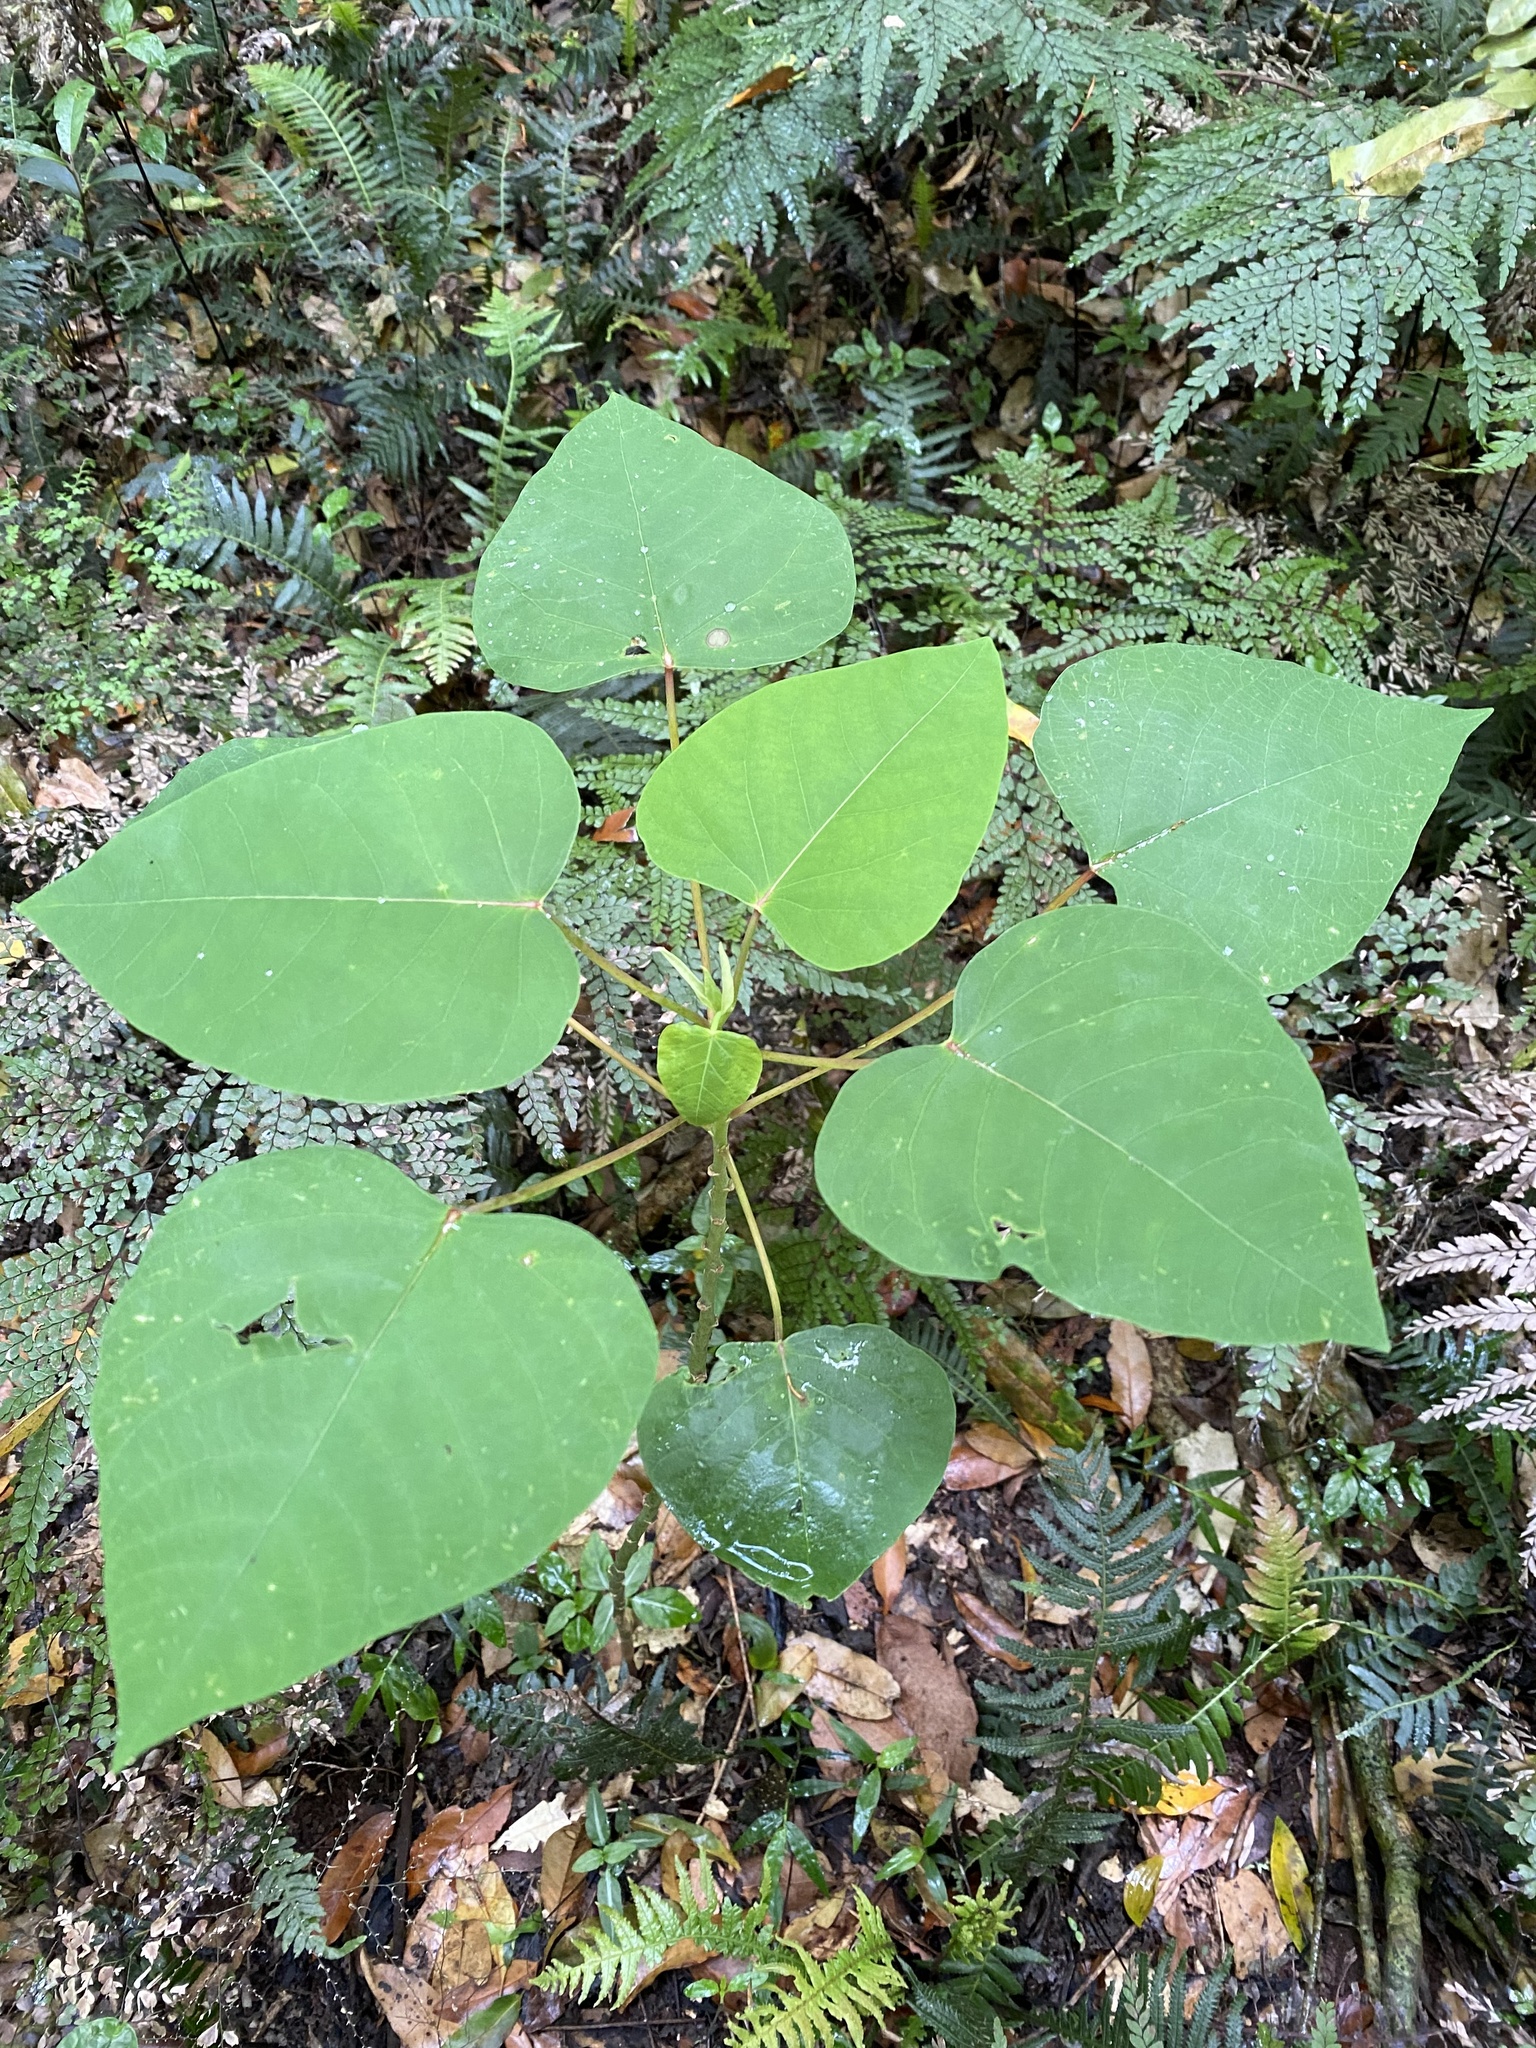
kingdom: Plantae
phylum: Tracheophyta
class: Magnoliopsida
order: Malpighiales
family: Euphorbiaceae
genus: Homalanthus
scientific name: Homalanthus populifolius
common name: Queensland poplar
